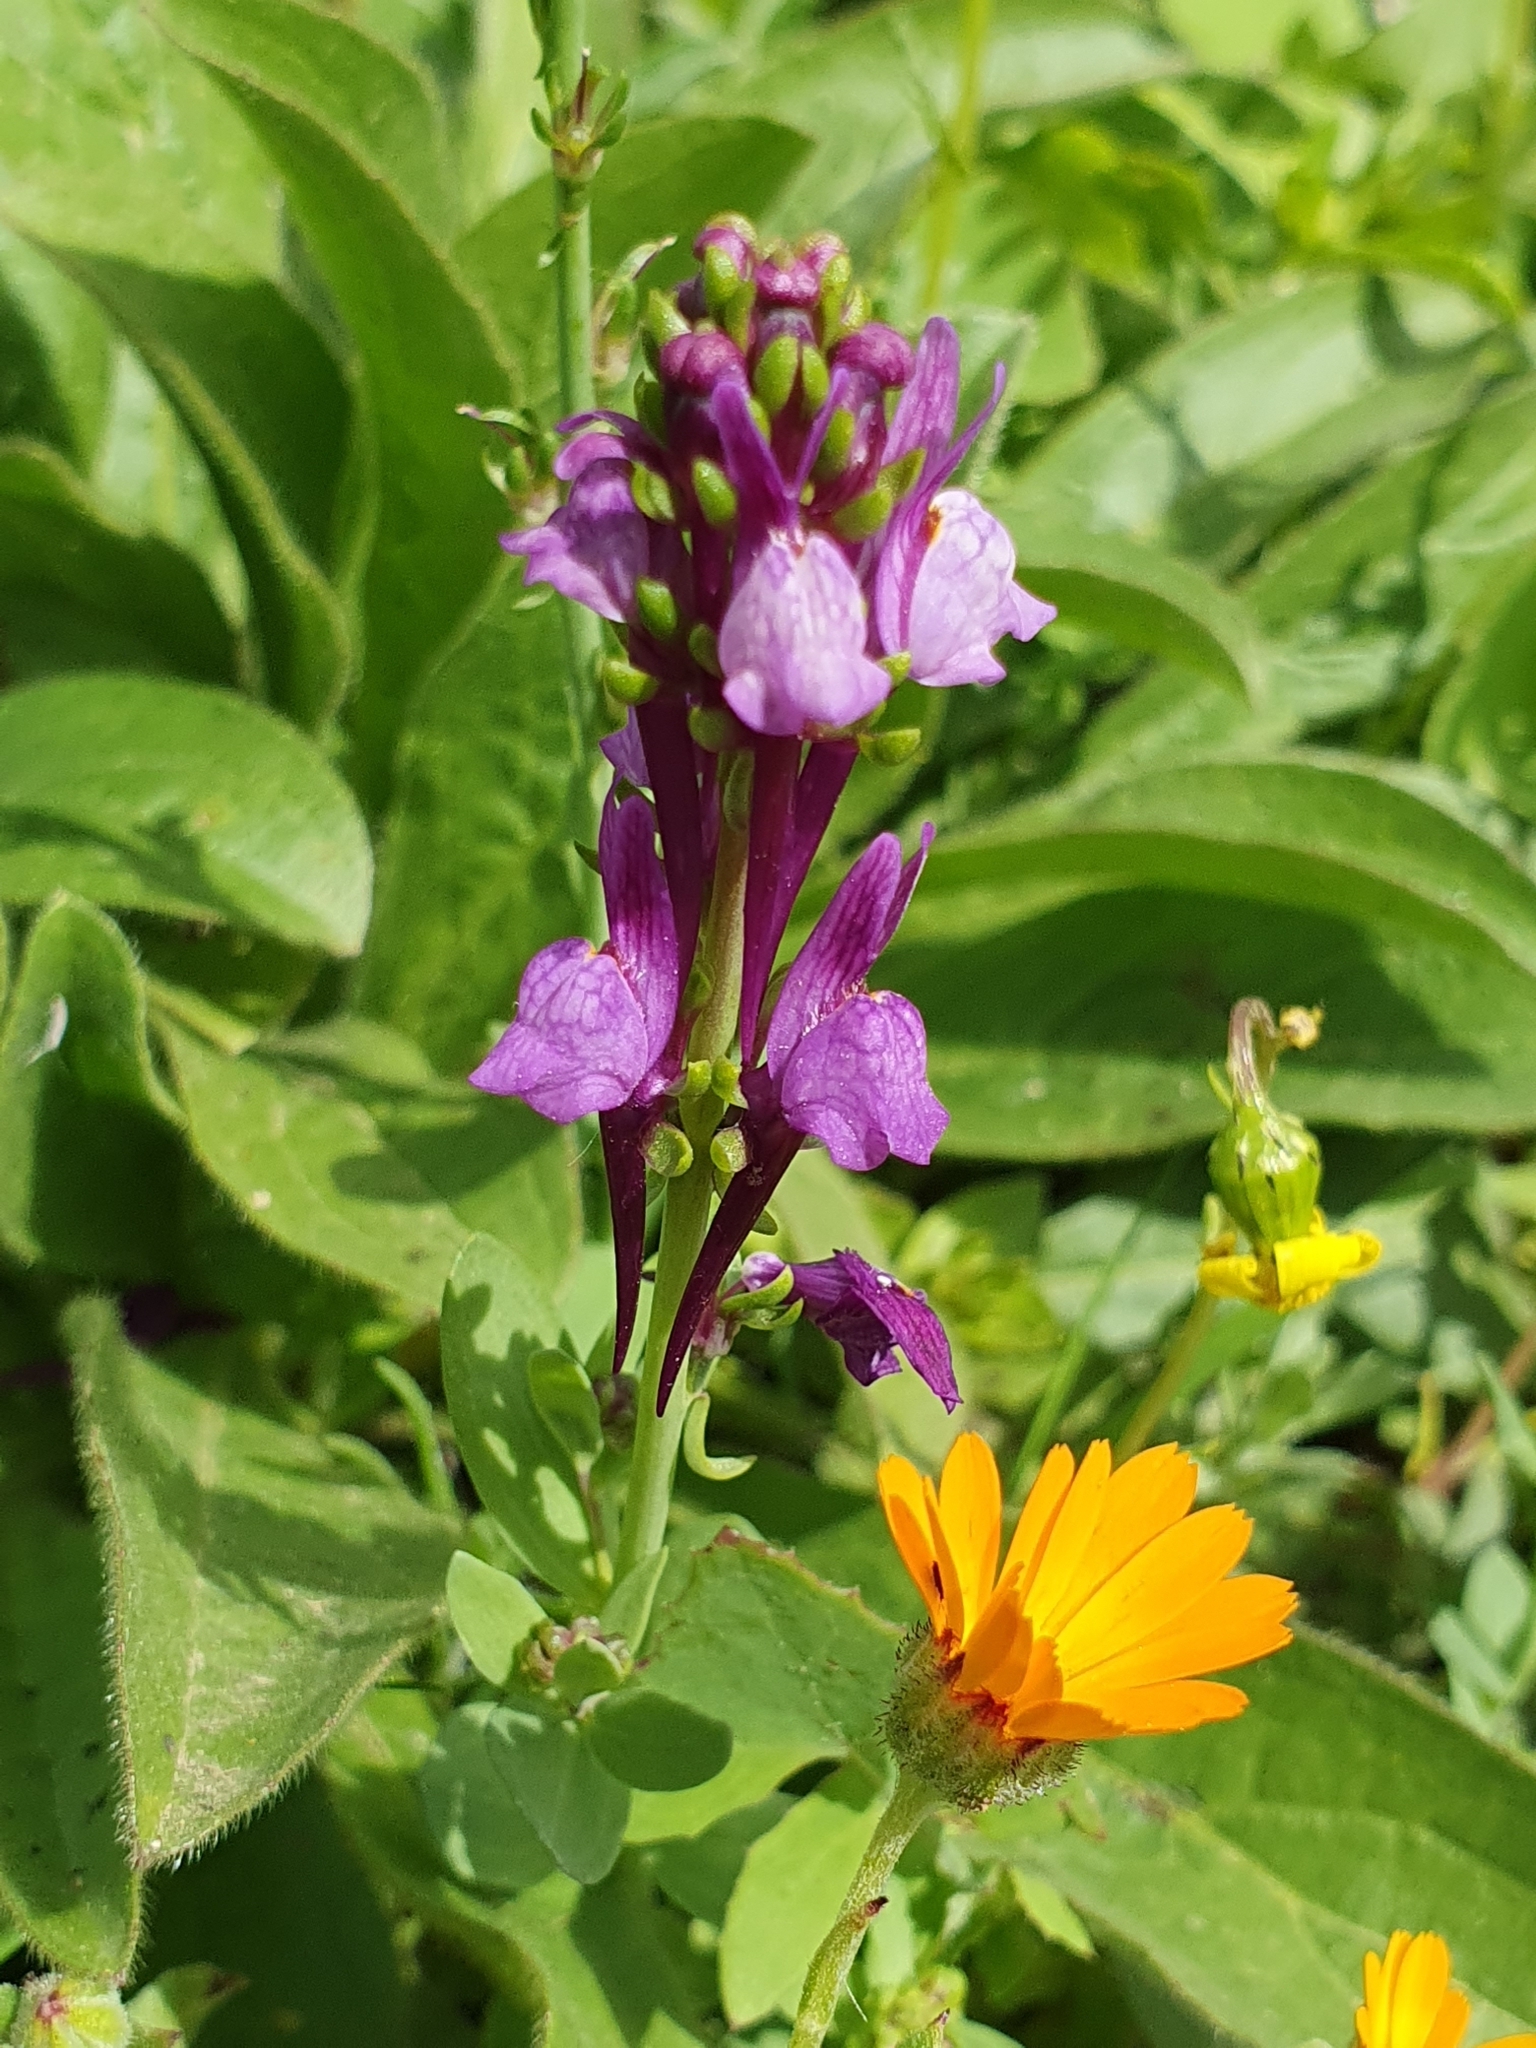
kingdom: Plantae
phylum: Tracheophyta
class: Magnoliopsida
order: Lamiales
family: Plantaginaceae
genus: Linaria
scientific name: Linaria virgata
